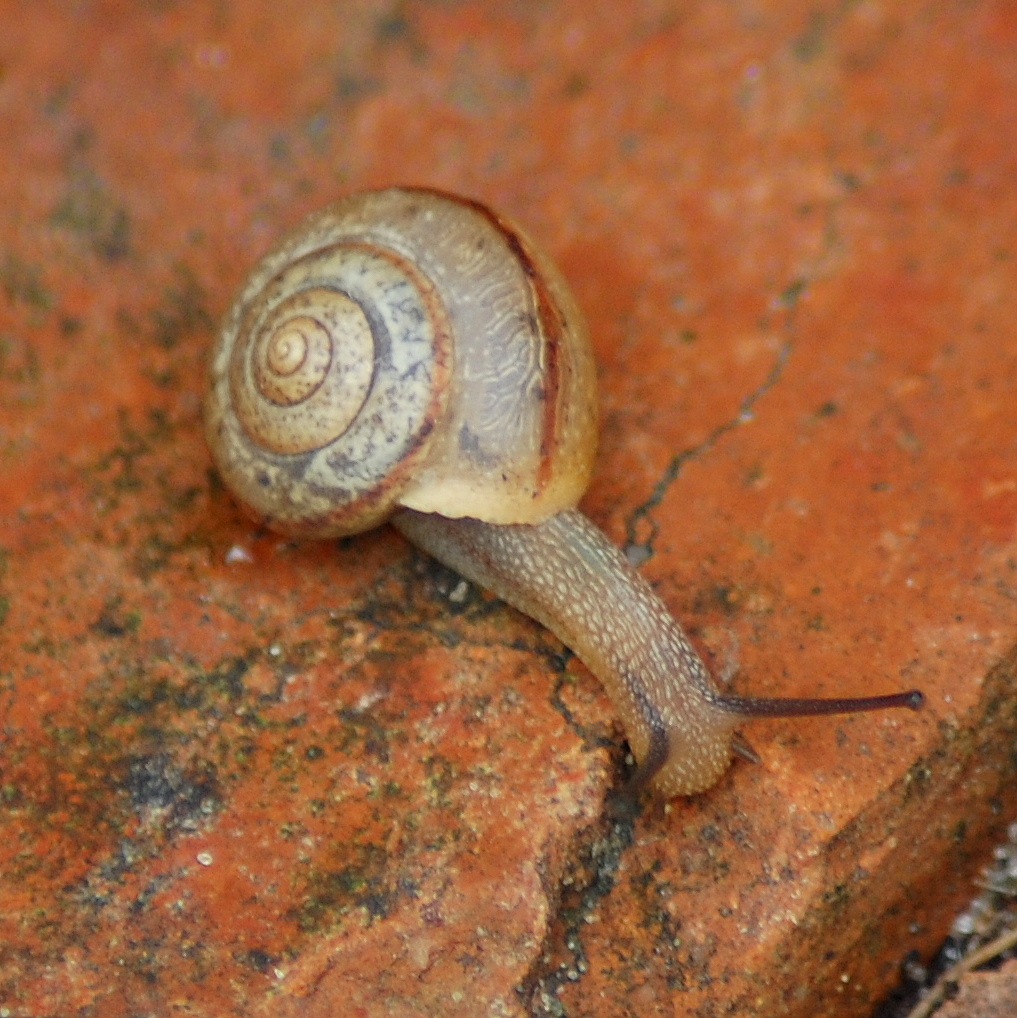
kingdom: Animalia
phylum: Mollusca
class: Gastropoda
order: Stylommatophora
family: Camaenidae
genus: Bradybaena
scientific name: Bradybaena similaris
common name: Asian trampsnail
